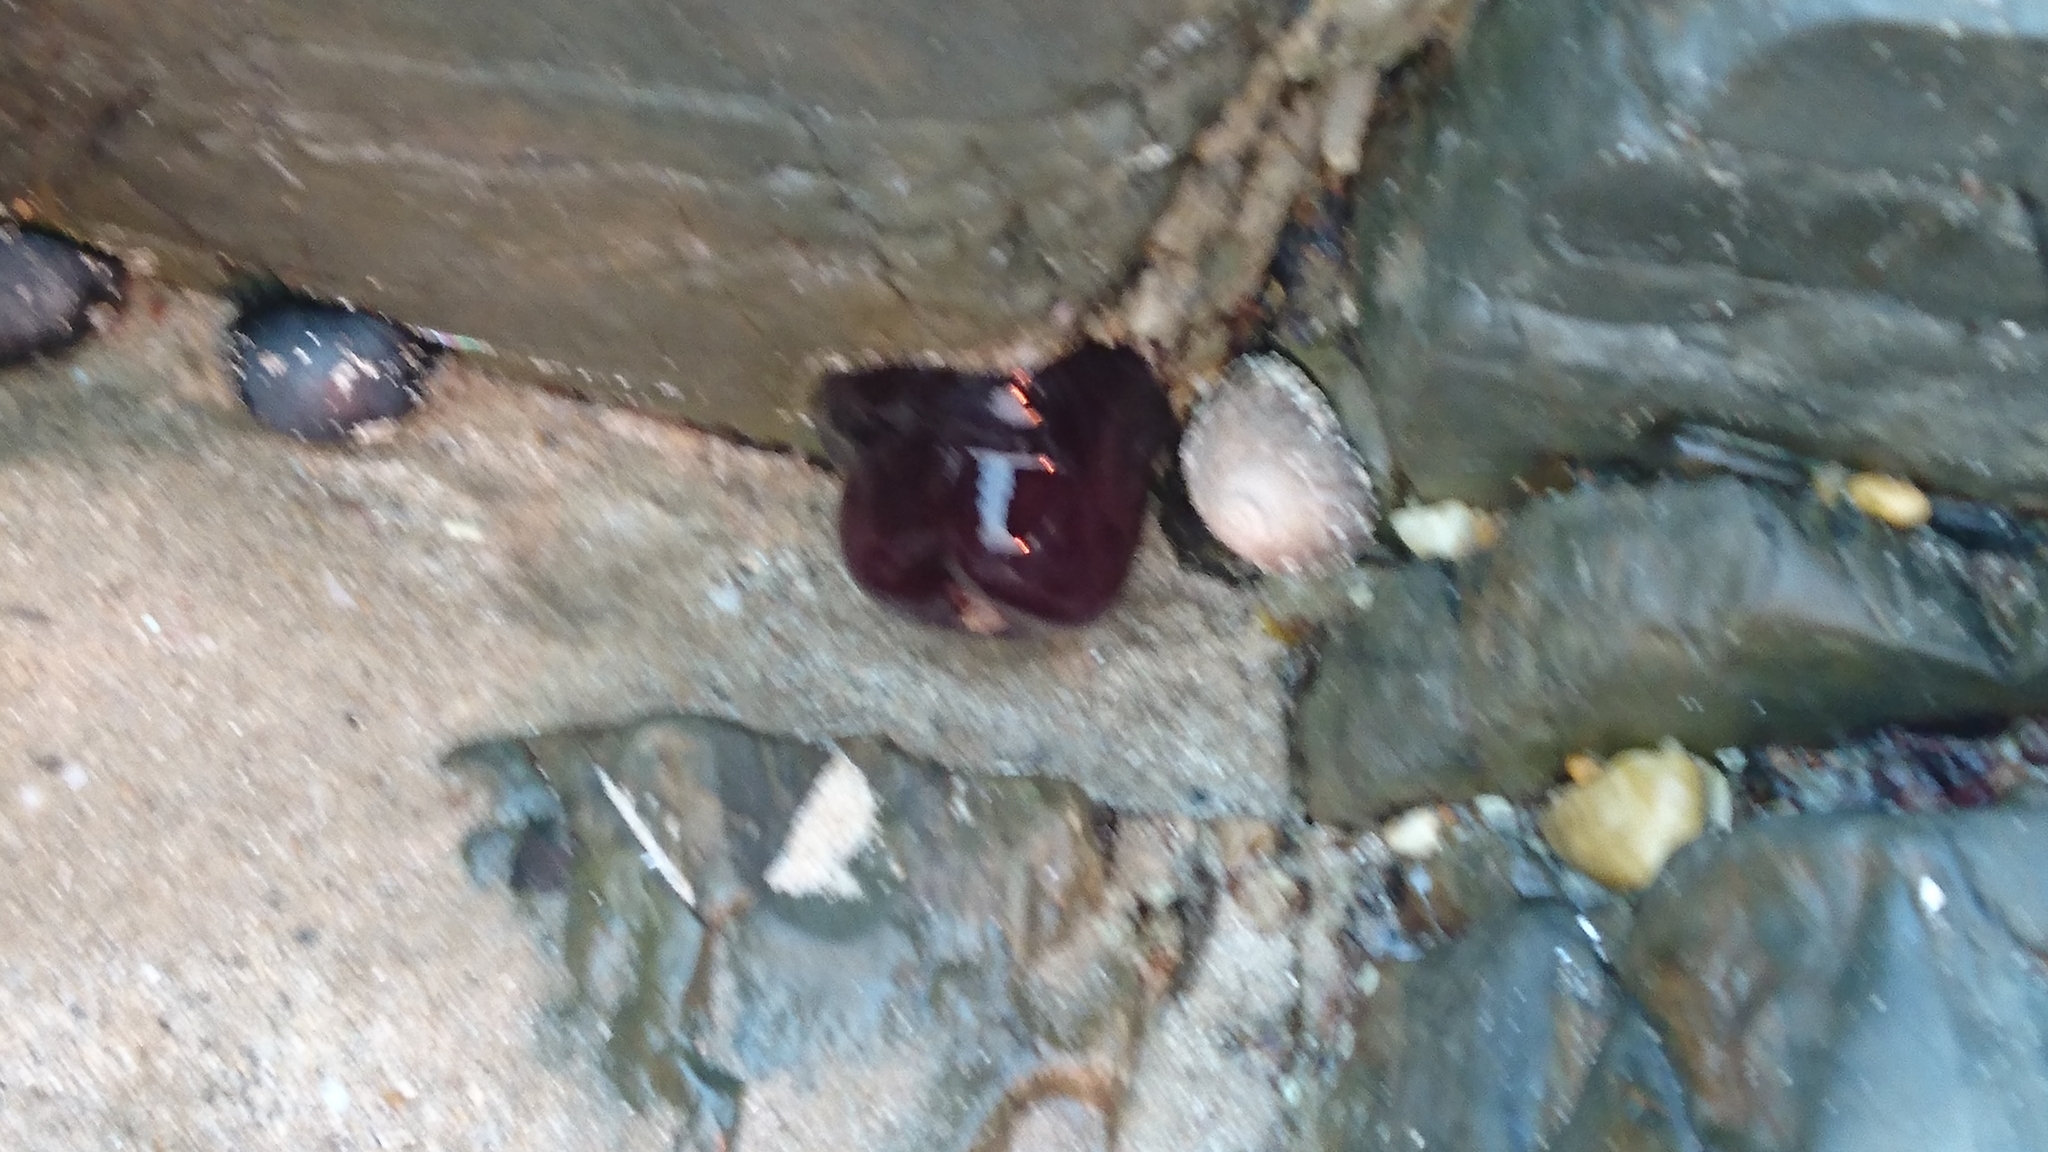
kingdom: Animalia
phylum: Cnidaria
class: Anthozoa
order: Actiniaria
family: Actiniidae
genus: Actinia
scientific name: Actinia tenebrosa
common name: Waratah anemone
